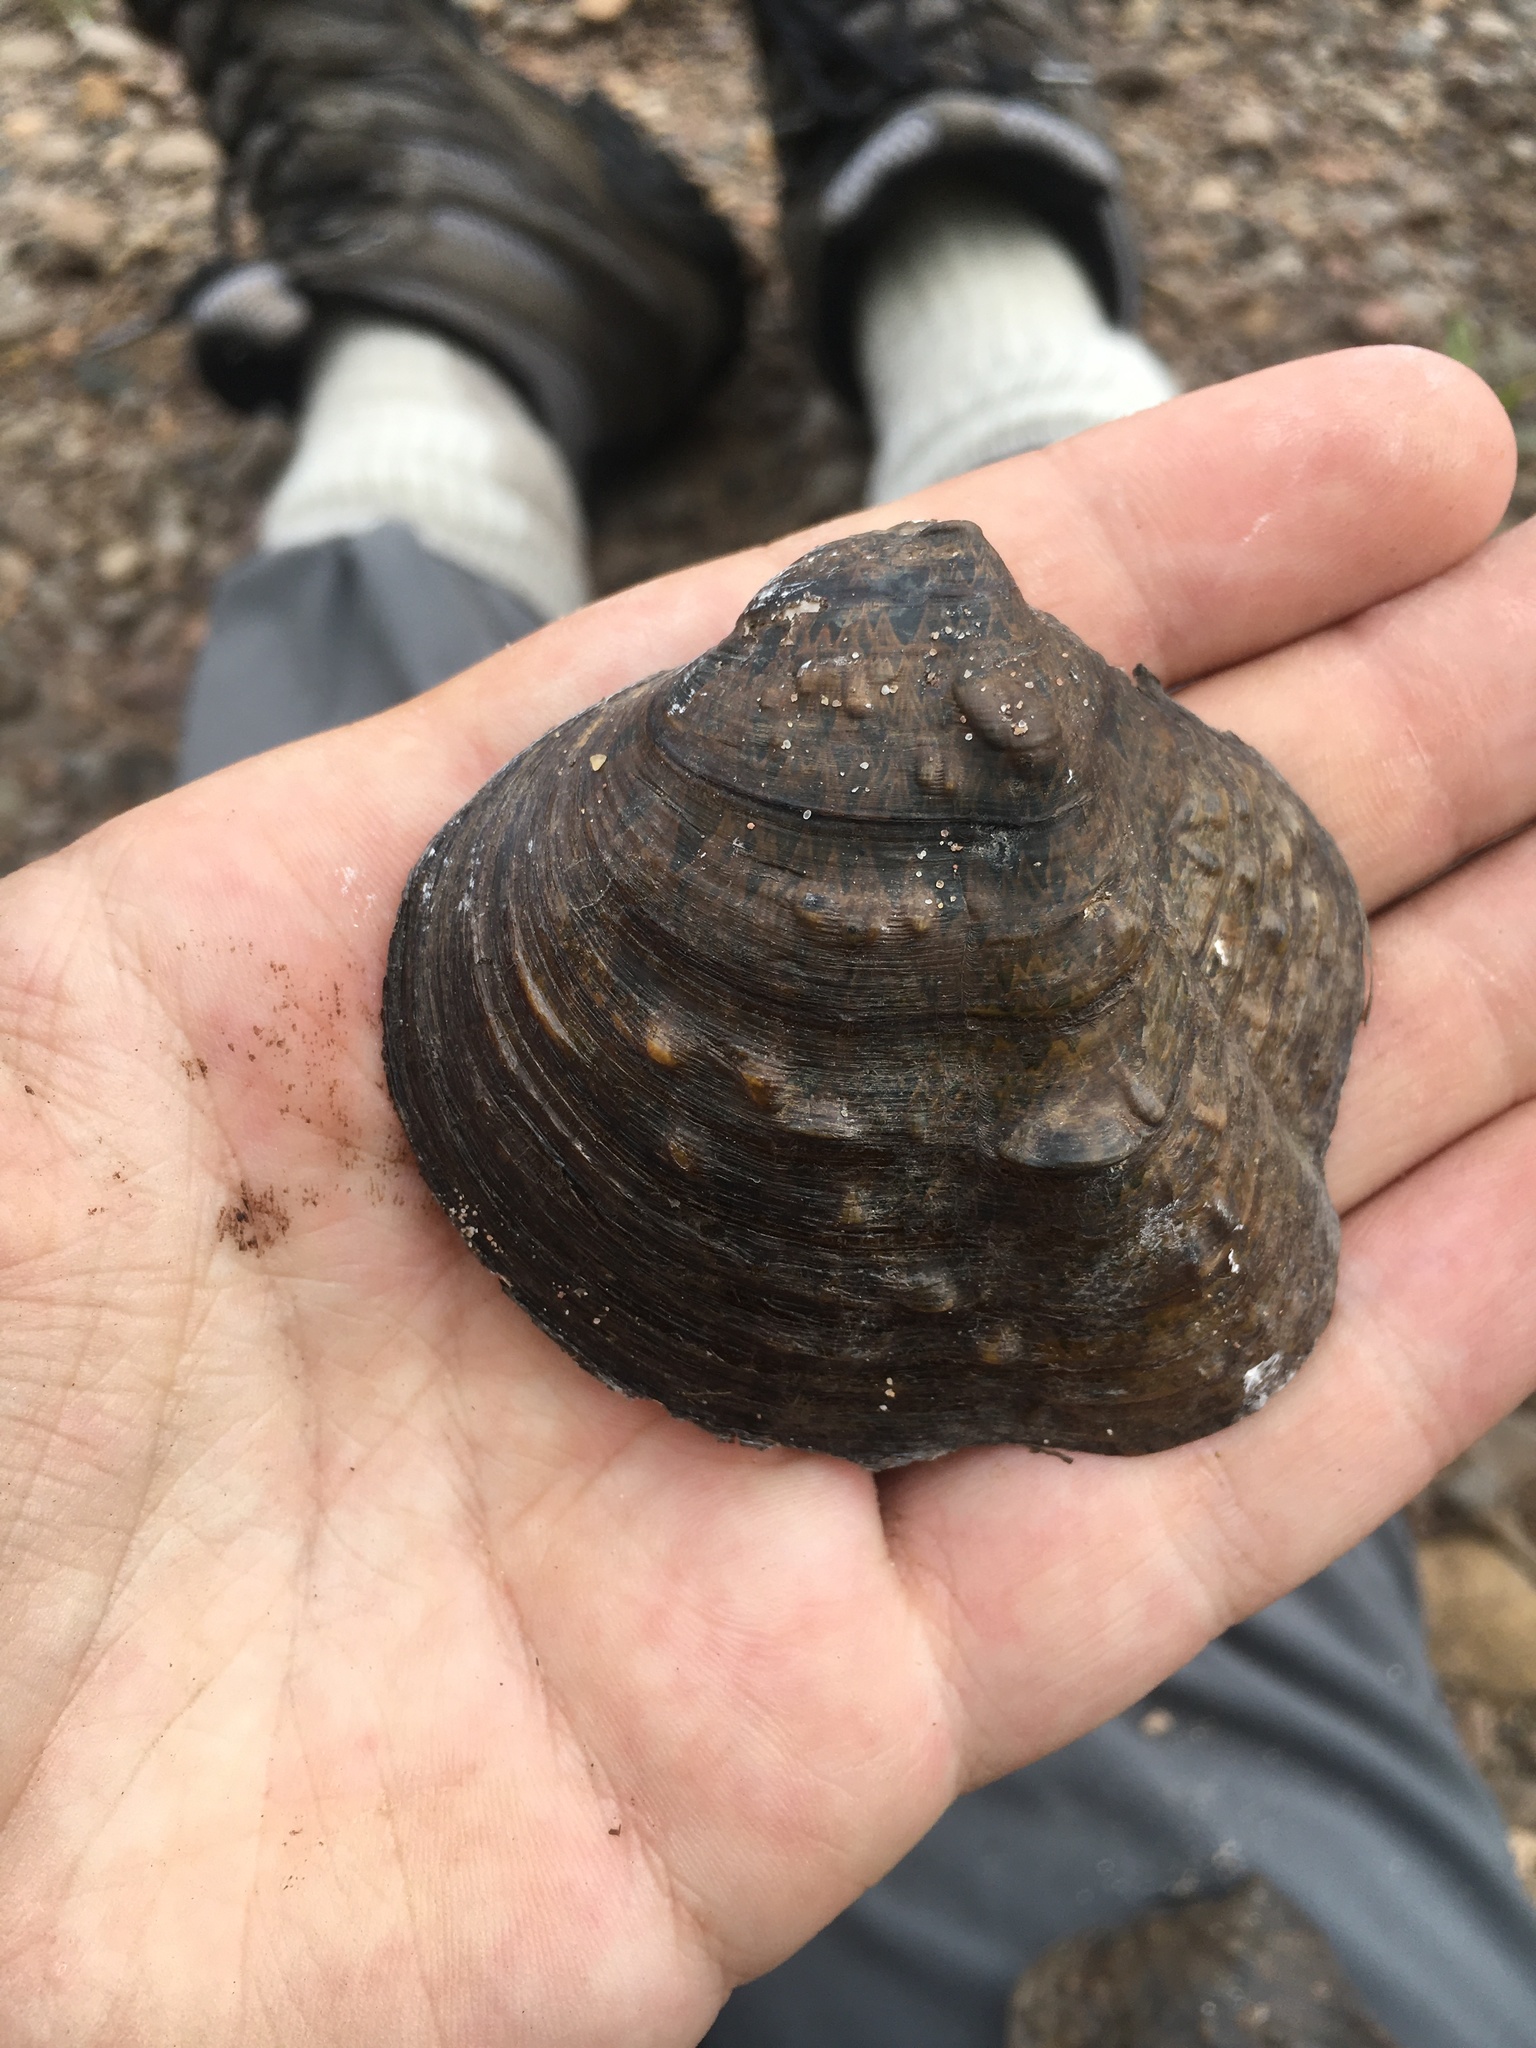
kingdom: Animalia
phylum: Mollusca
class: Bivalvia
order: Unionida
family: Unionidae
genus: Theliderma
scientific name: Theliderma metanevra
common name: Monkeyface
